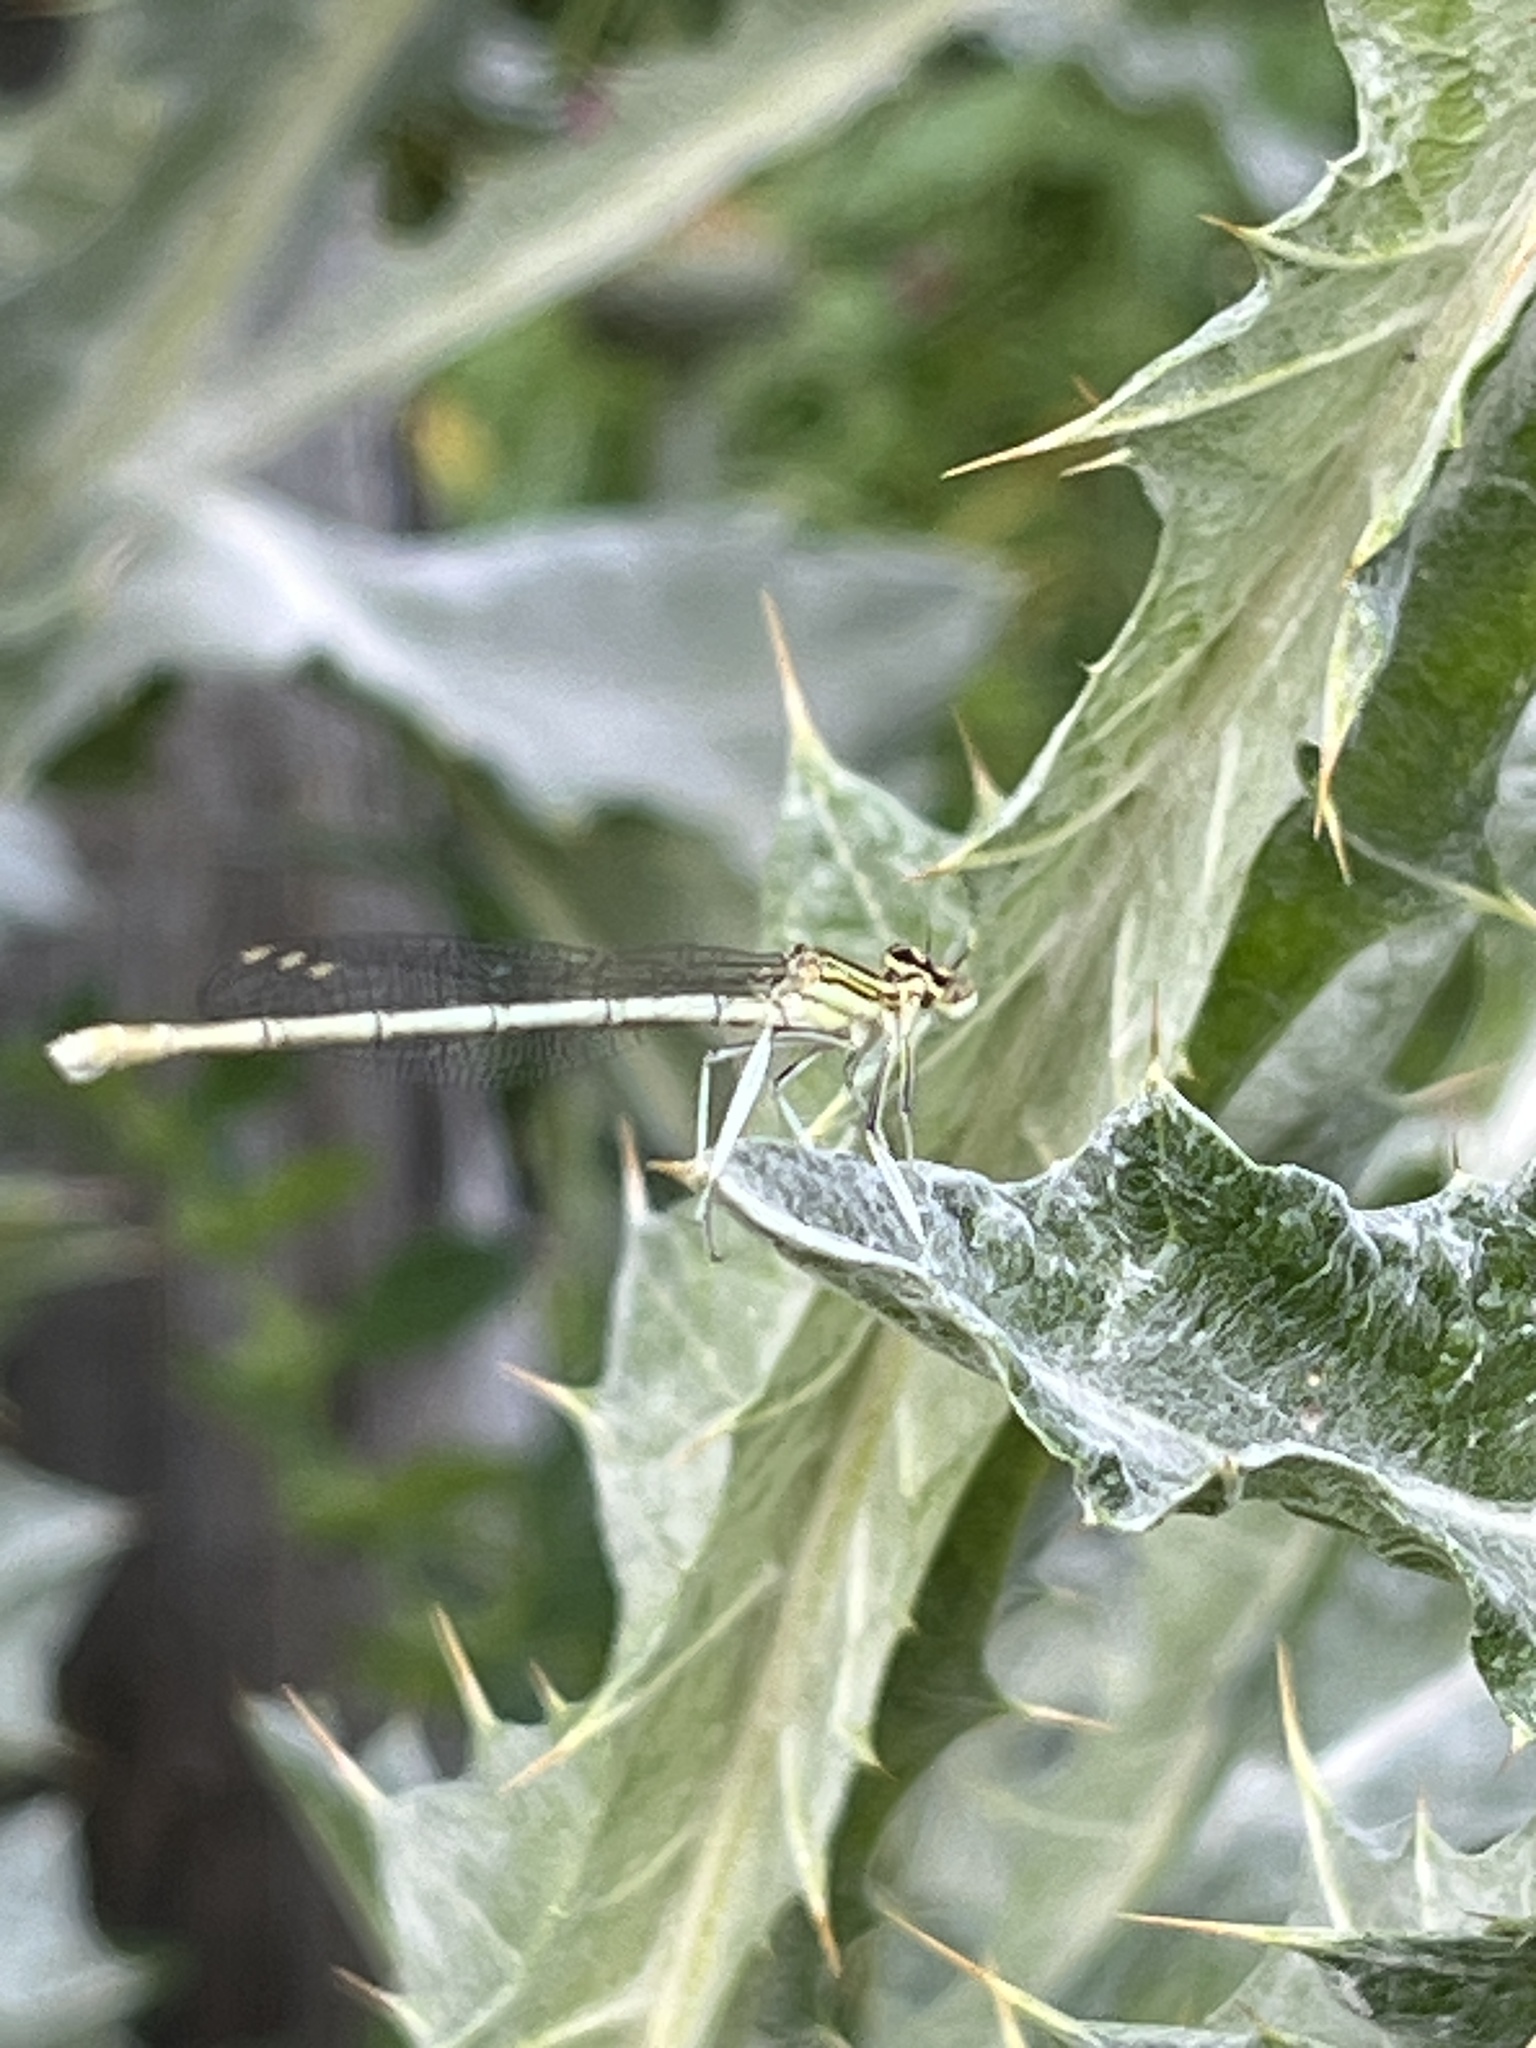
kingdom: Animalia
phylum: Arthropoda
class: Insecta
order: Odonata
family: Platycnemididae
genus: Platycnemis
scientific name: Platycnemis pennipes
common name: White-legged damselfly
